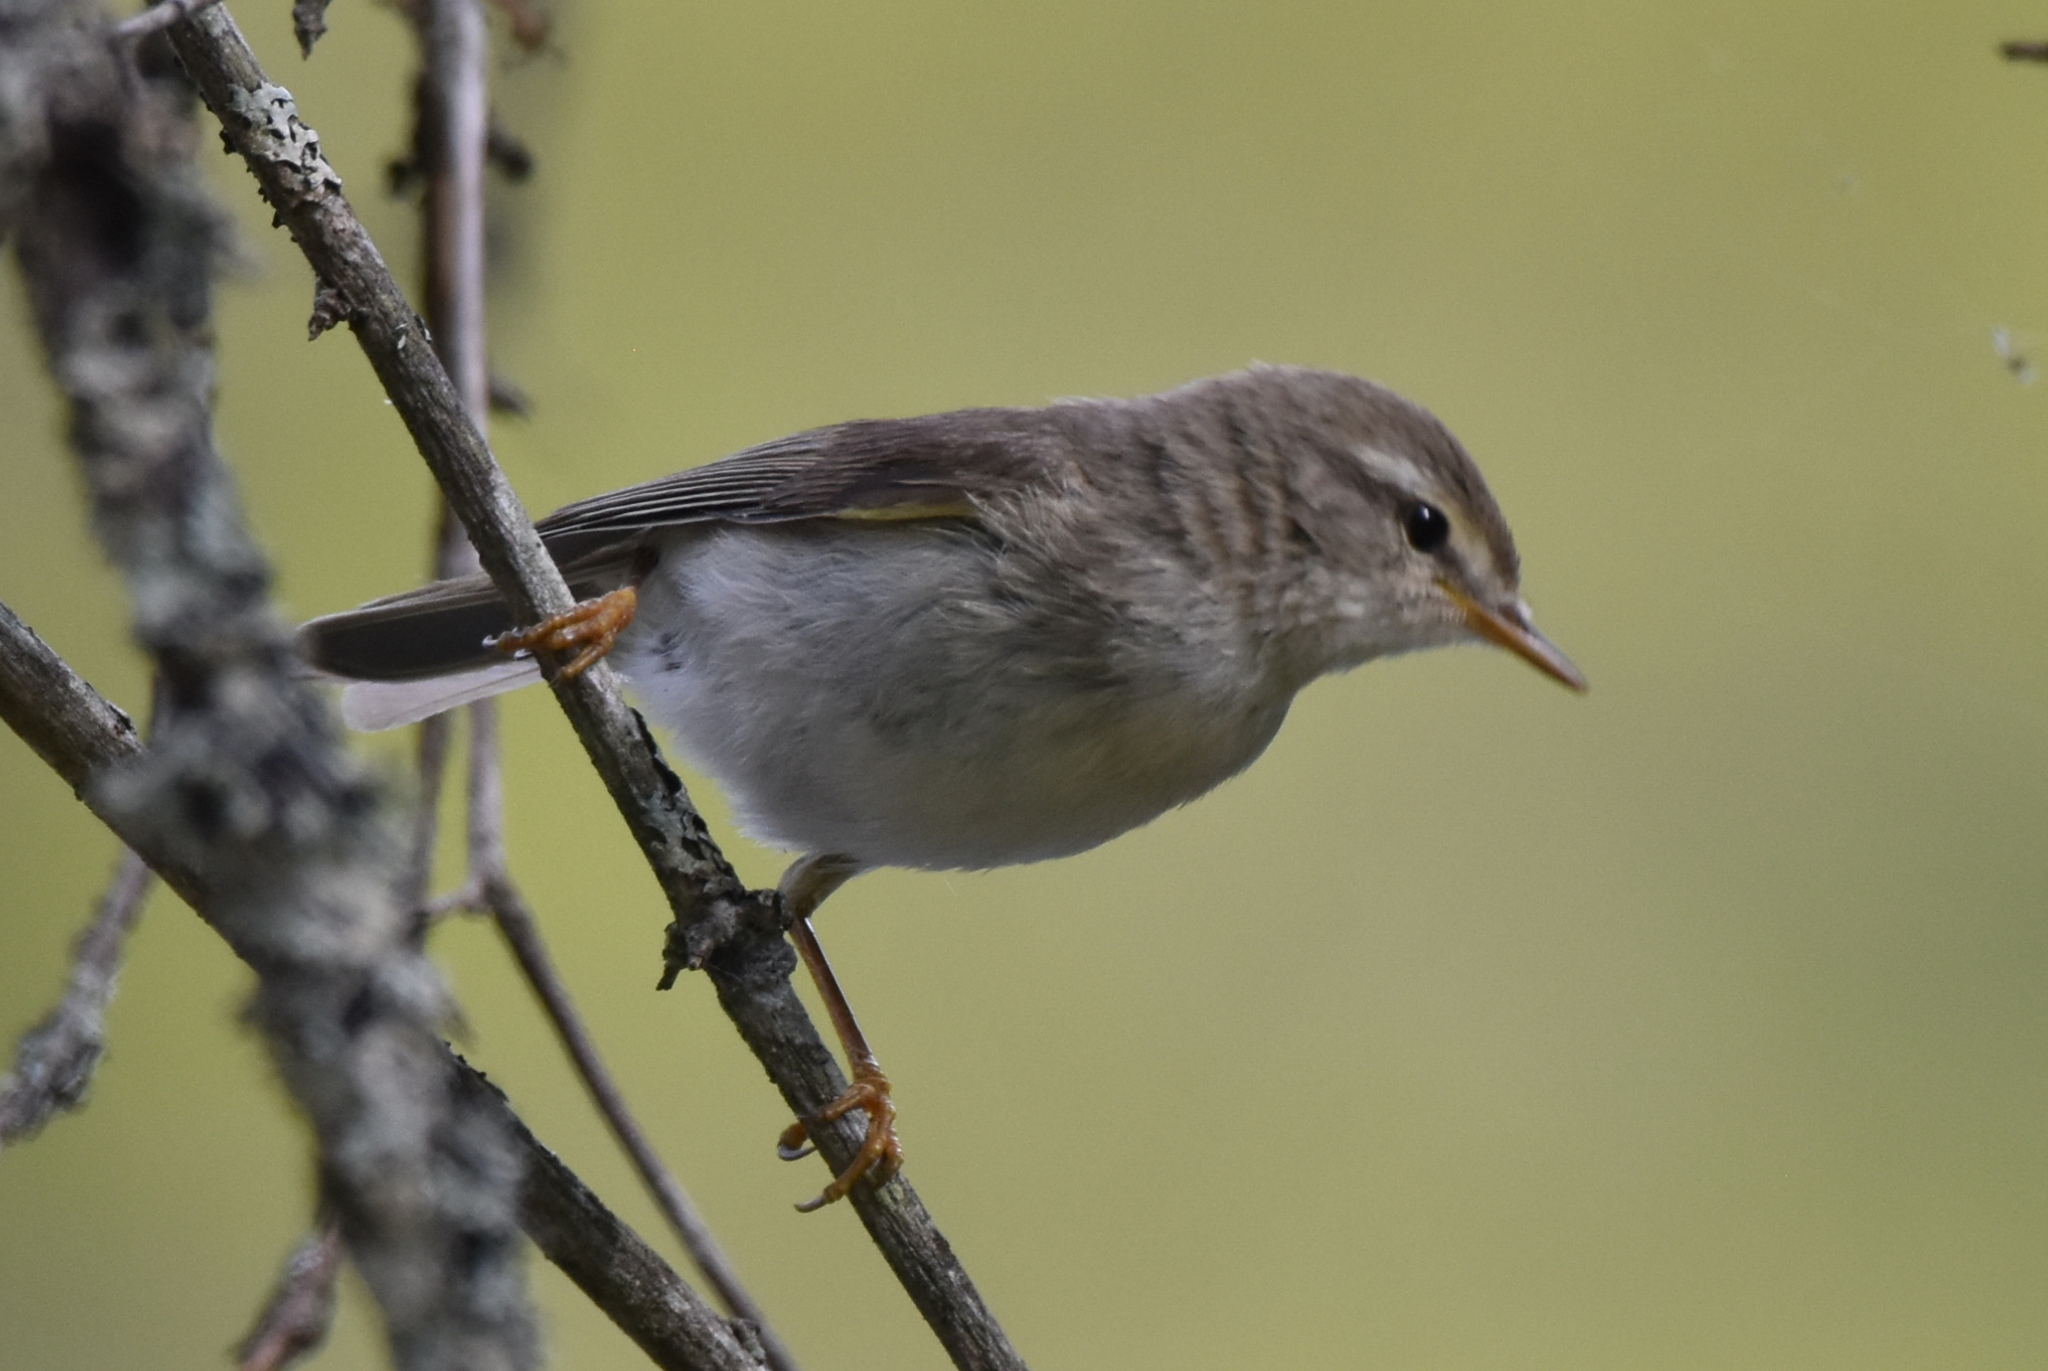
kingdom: Animalia
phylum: Chordata
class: Aves
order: Passeriformes
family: Phylloscopidae
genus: Phylloscopus
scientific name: Phylloscopus trochilus
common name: Willow warbler
